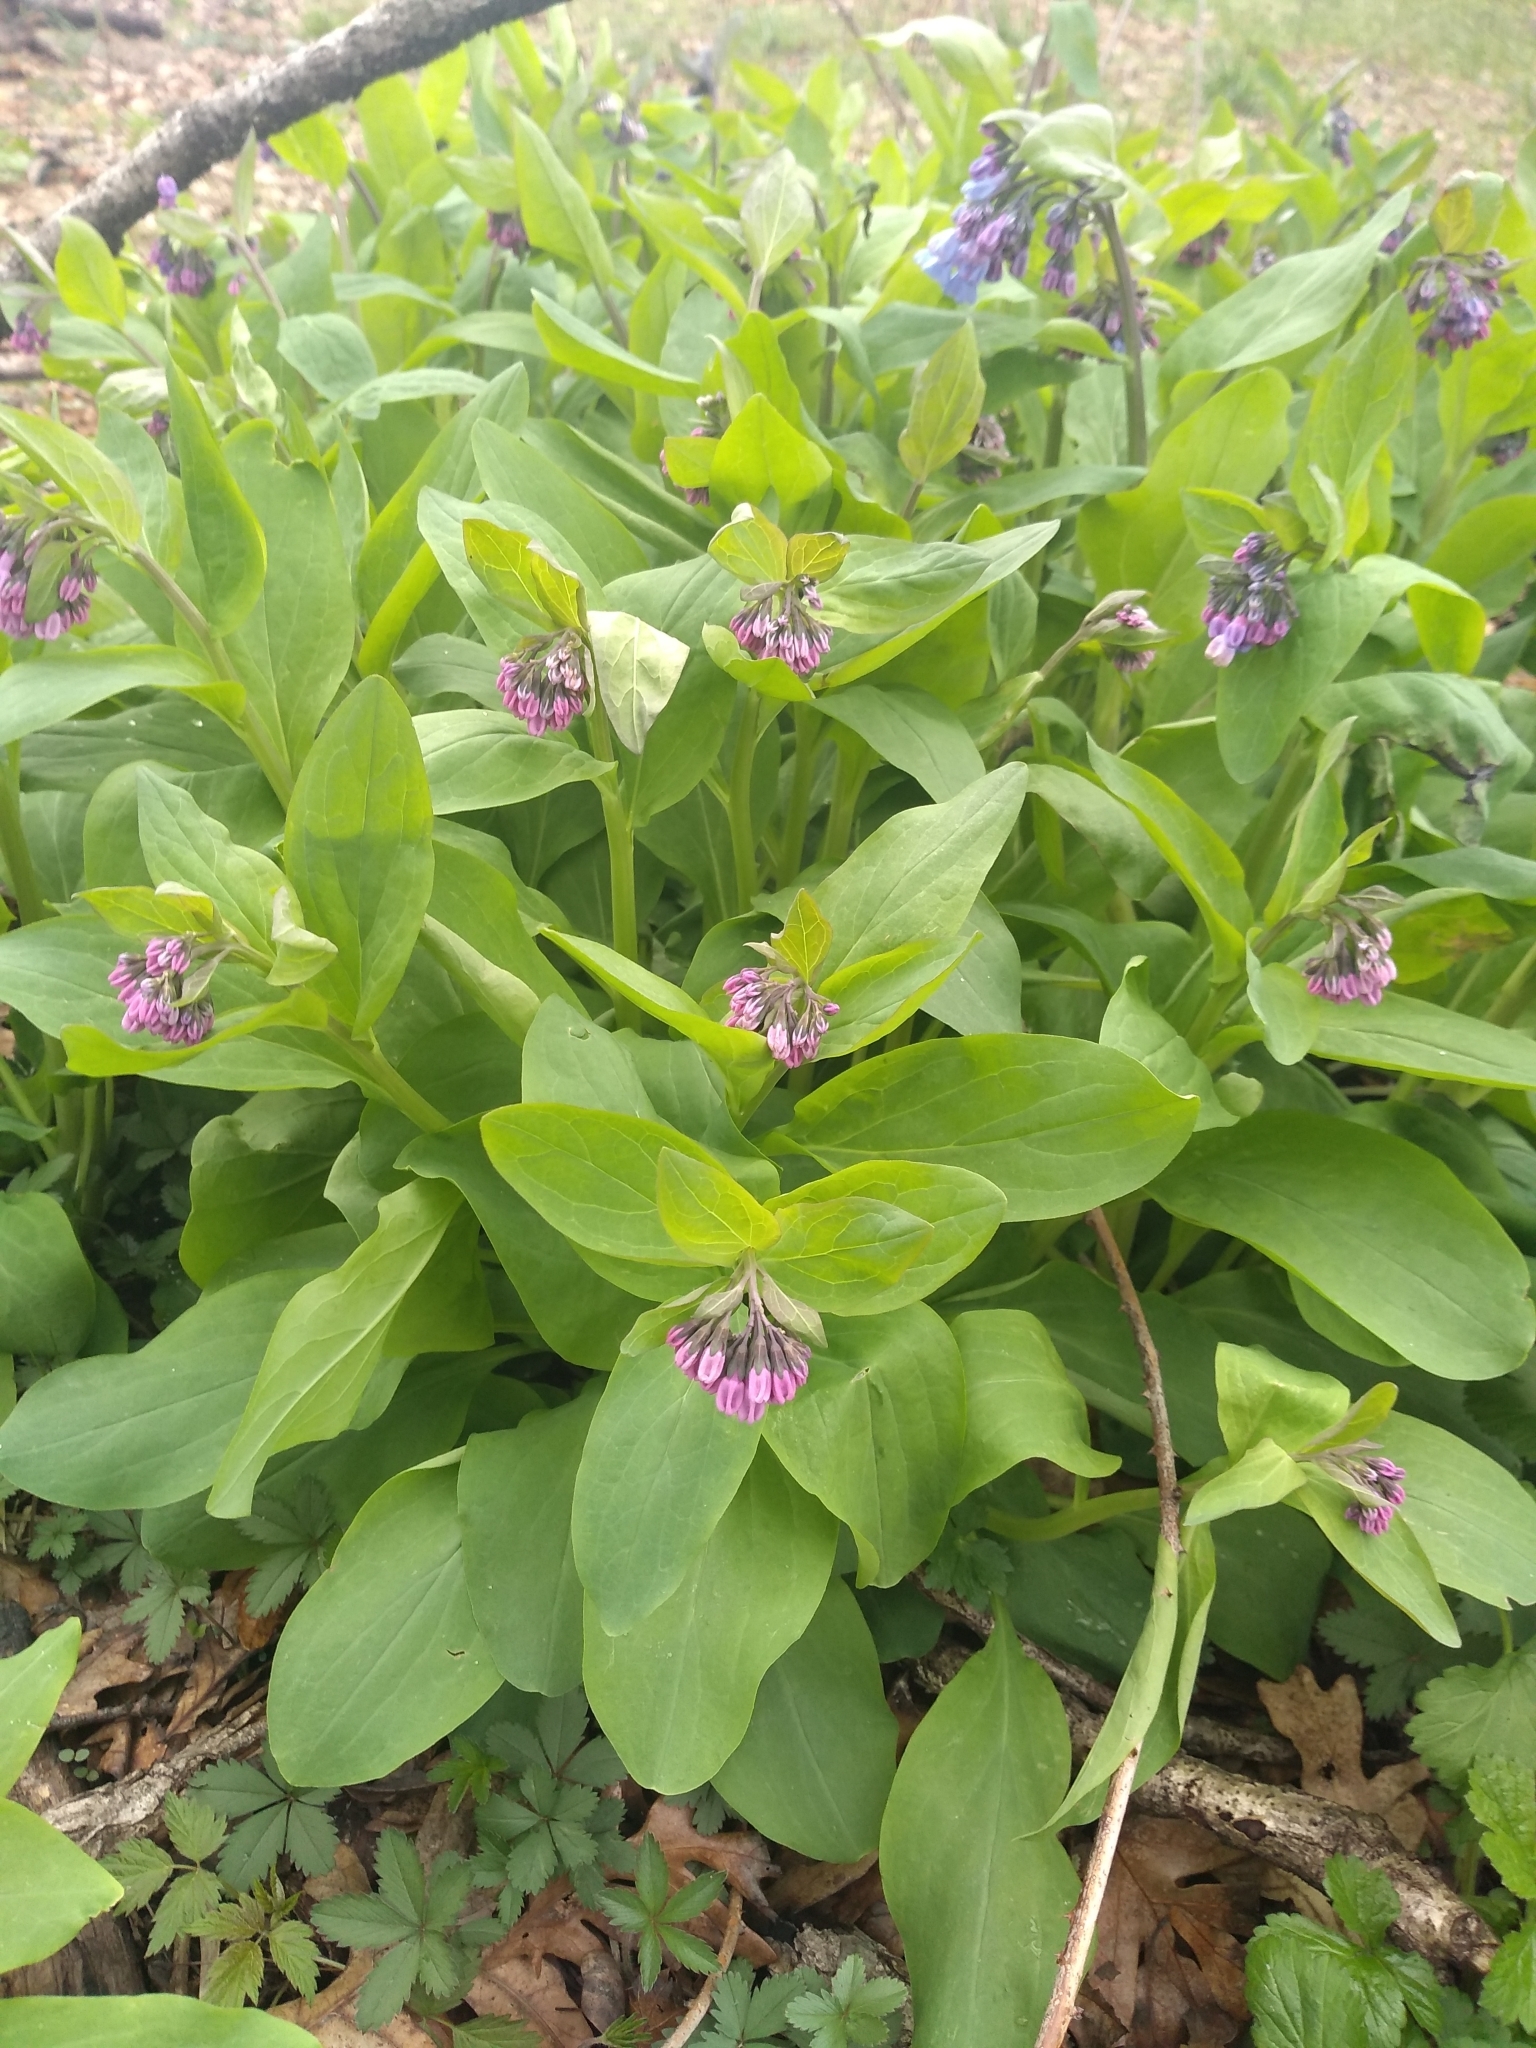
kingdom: Plantae
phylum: Tracheophyta
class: Magnoliopsida
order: Boraginales
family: Boraginaceae
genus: Mertensia
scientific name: Mertensia virginica
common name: Virginia bluebells
